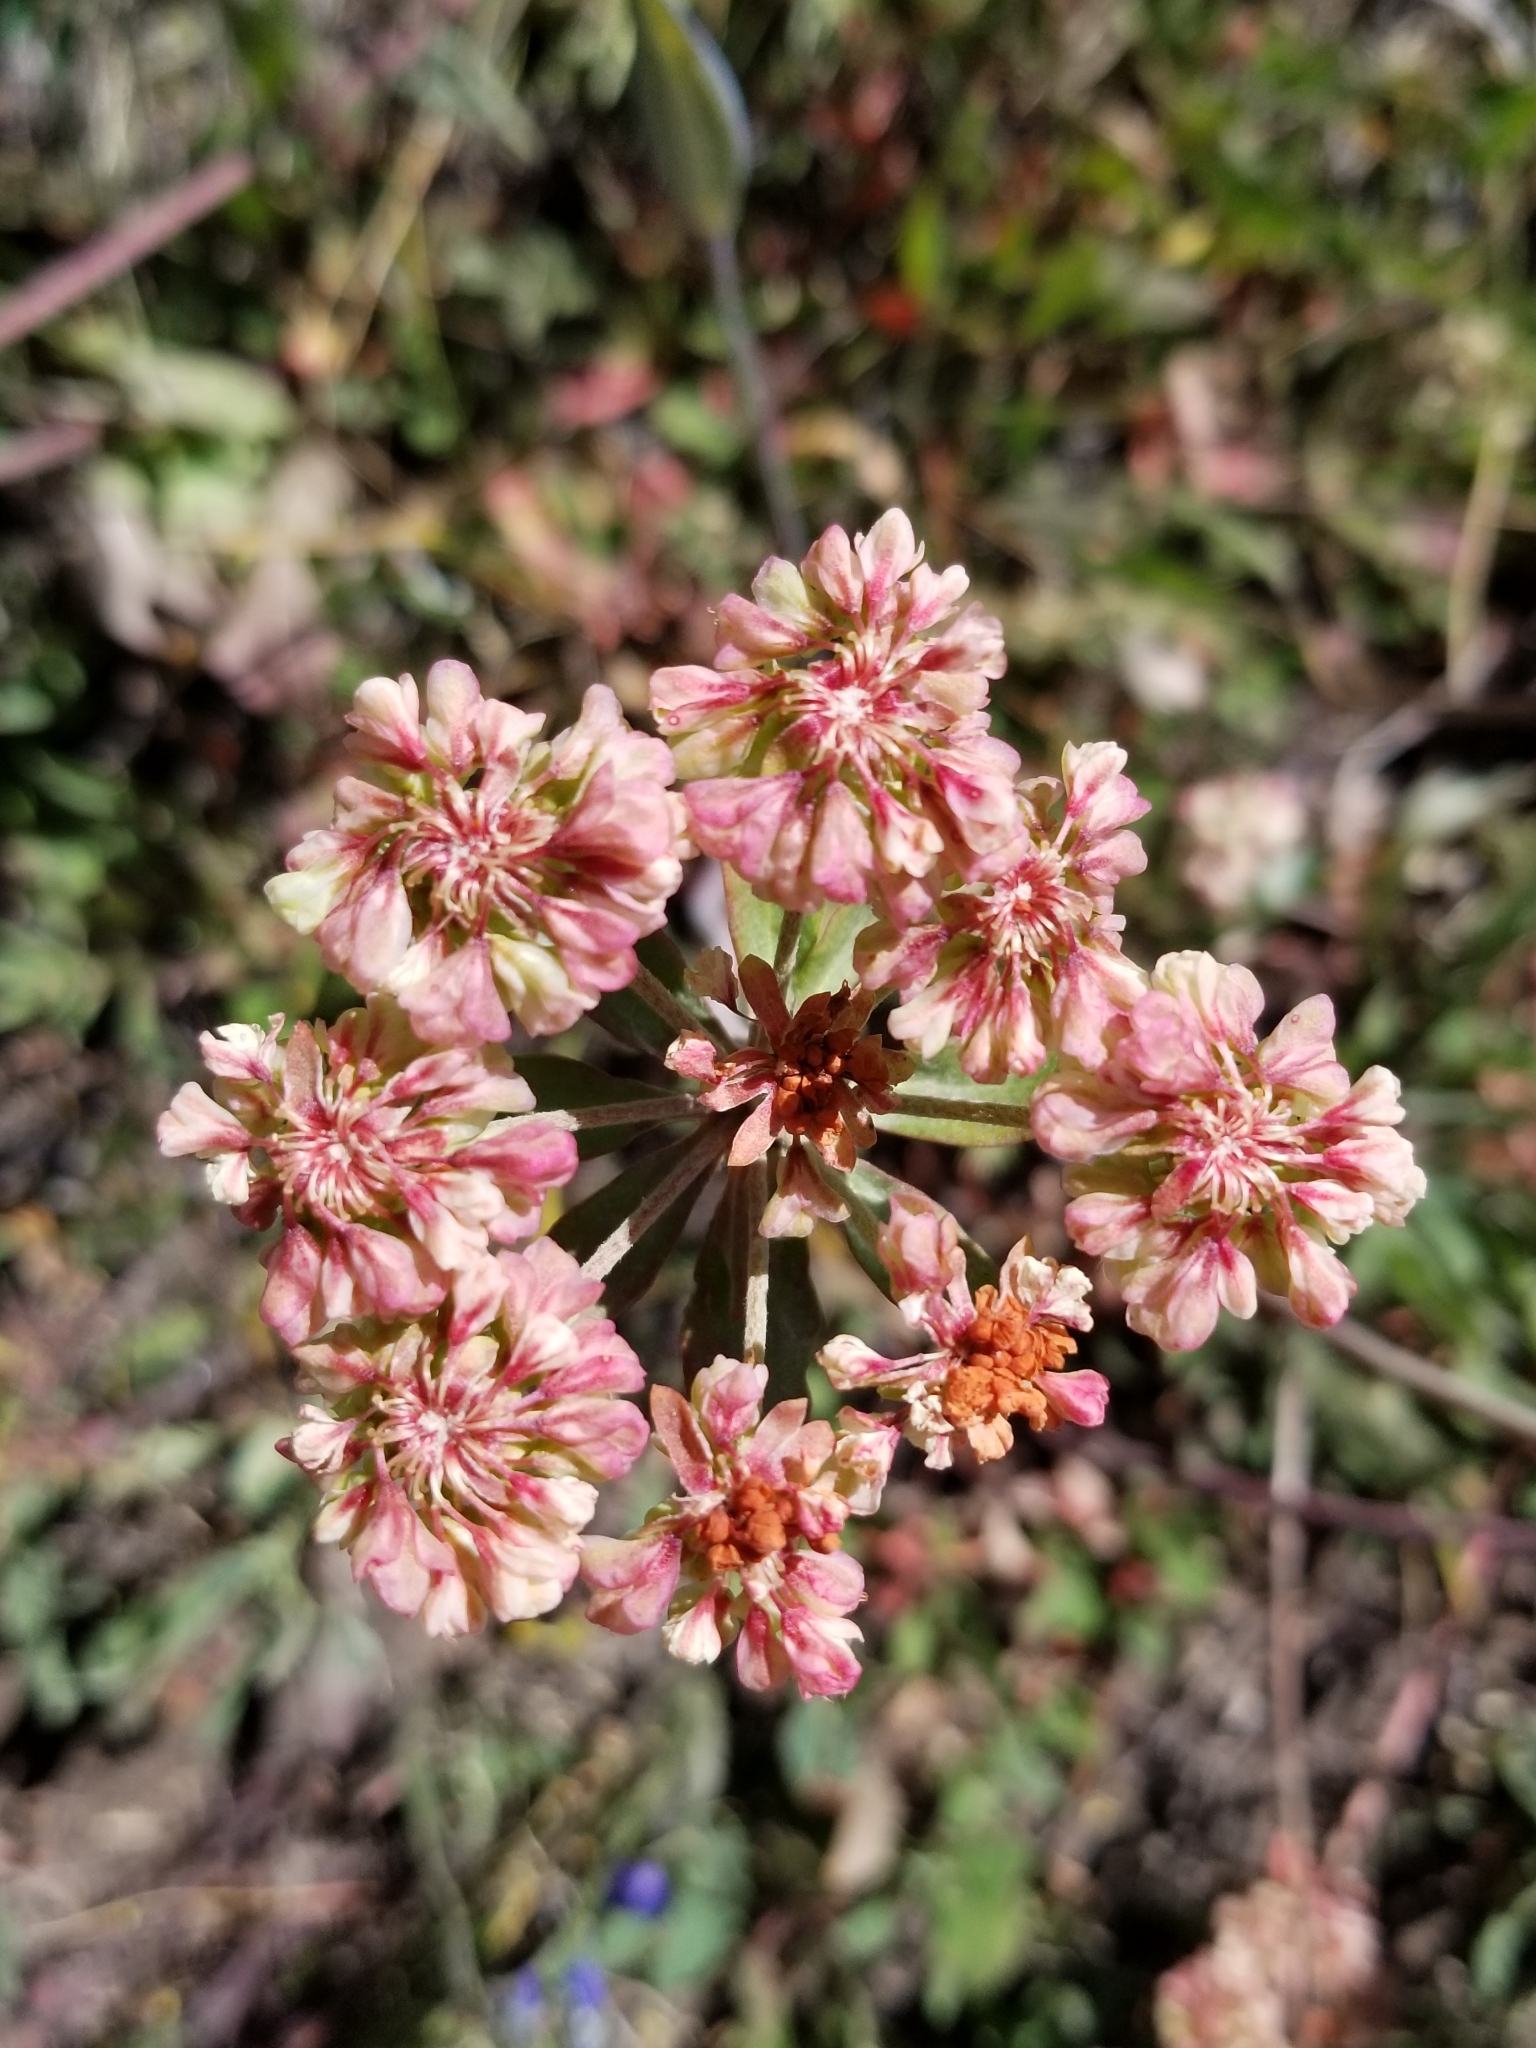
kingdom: Plantae
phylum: Tracheophyta
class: Magnoliopsida
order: Caryophyllales
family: Polygonaceae
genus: Eriogonum
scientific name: Eriogonum umbellatum
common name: Sulfur-buckwheat
